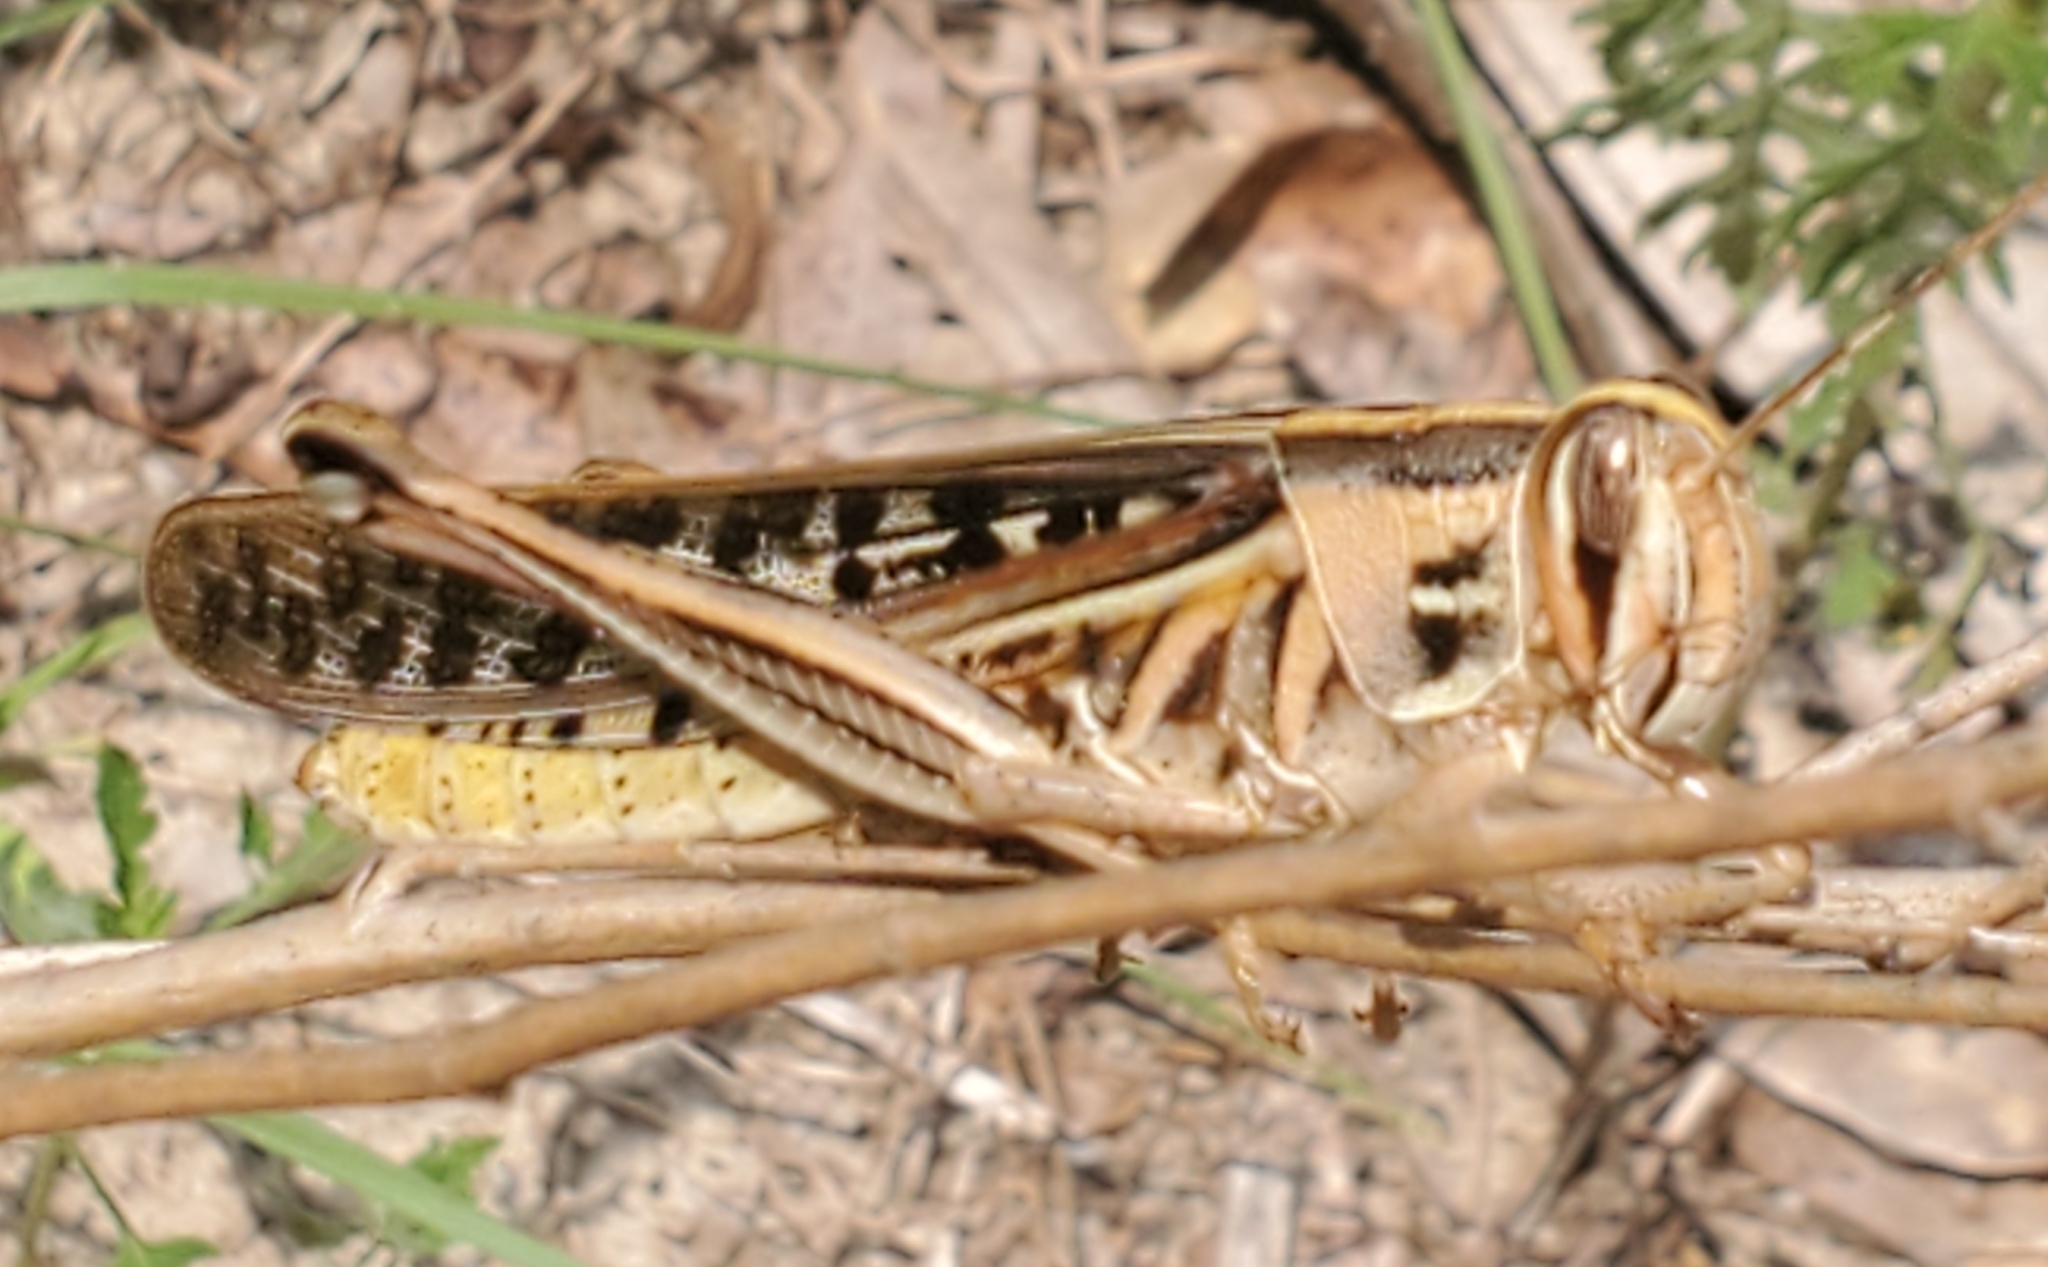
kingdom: Animalia
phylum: Arthropoda
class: Insecta
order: Orthoptera
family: Acrididae
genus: Schistocerca
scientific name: Schistocerca americana
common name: American bird locust
